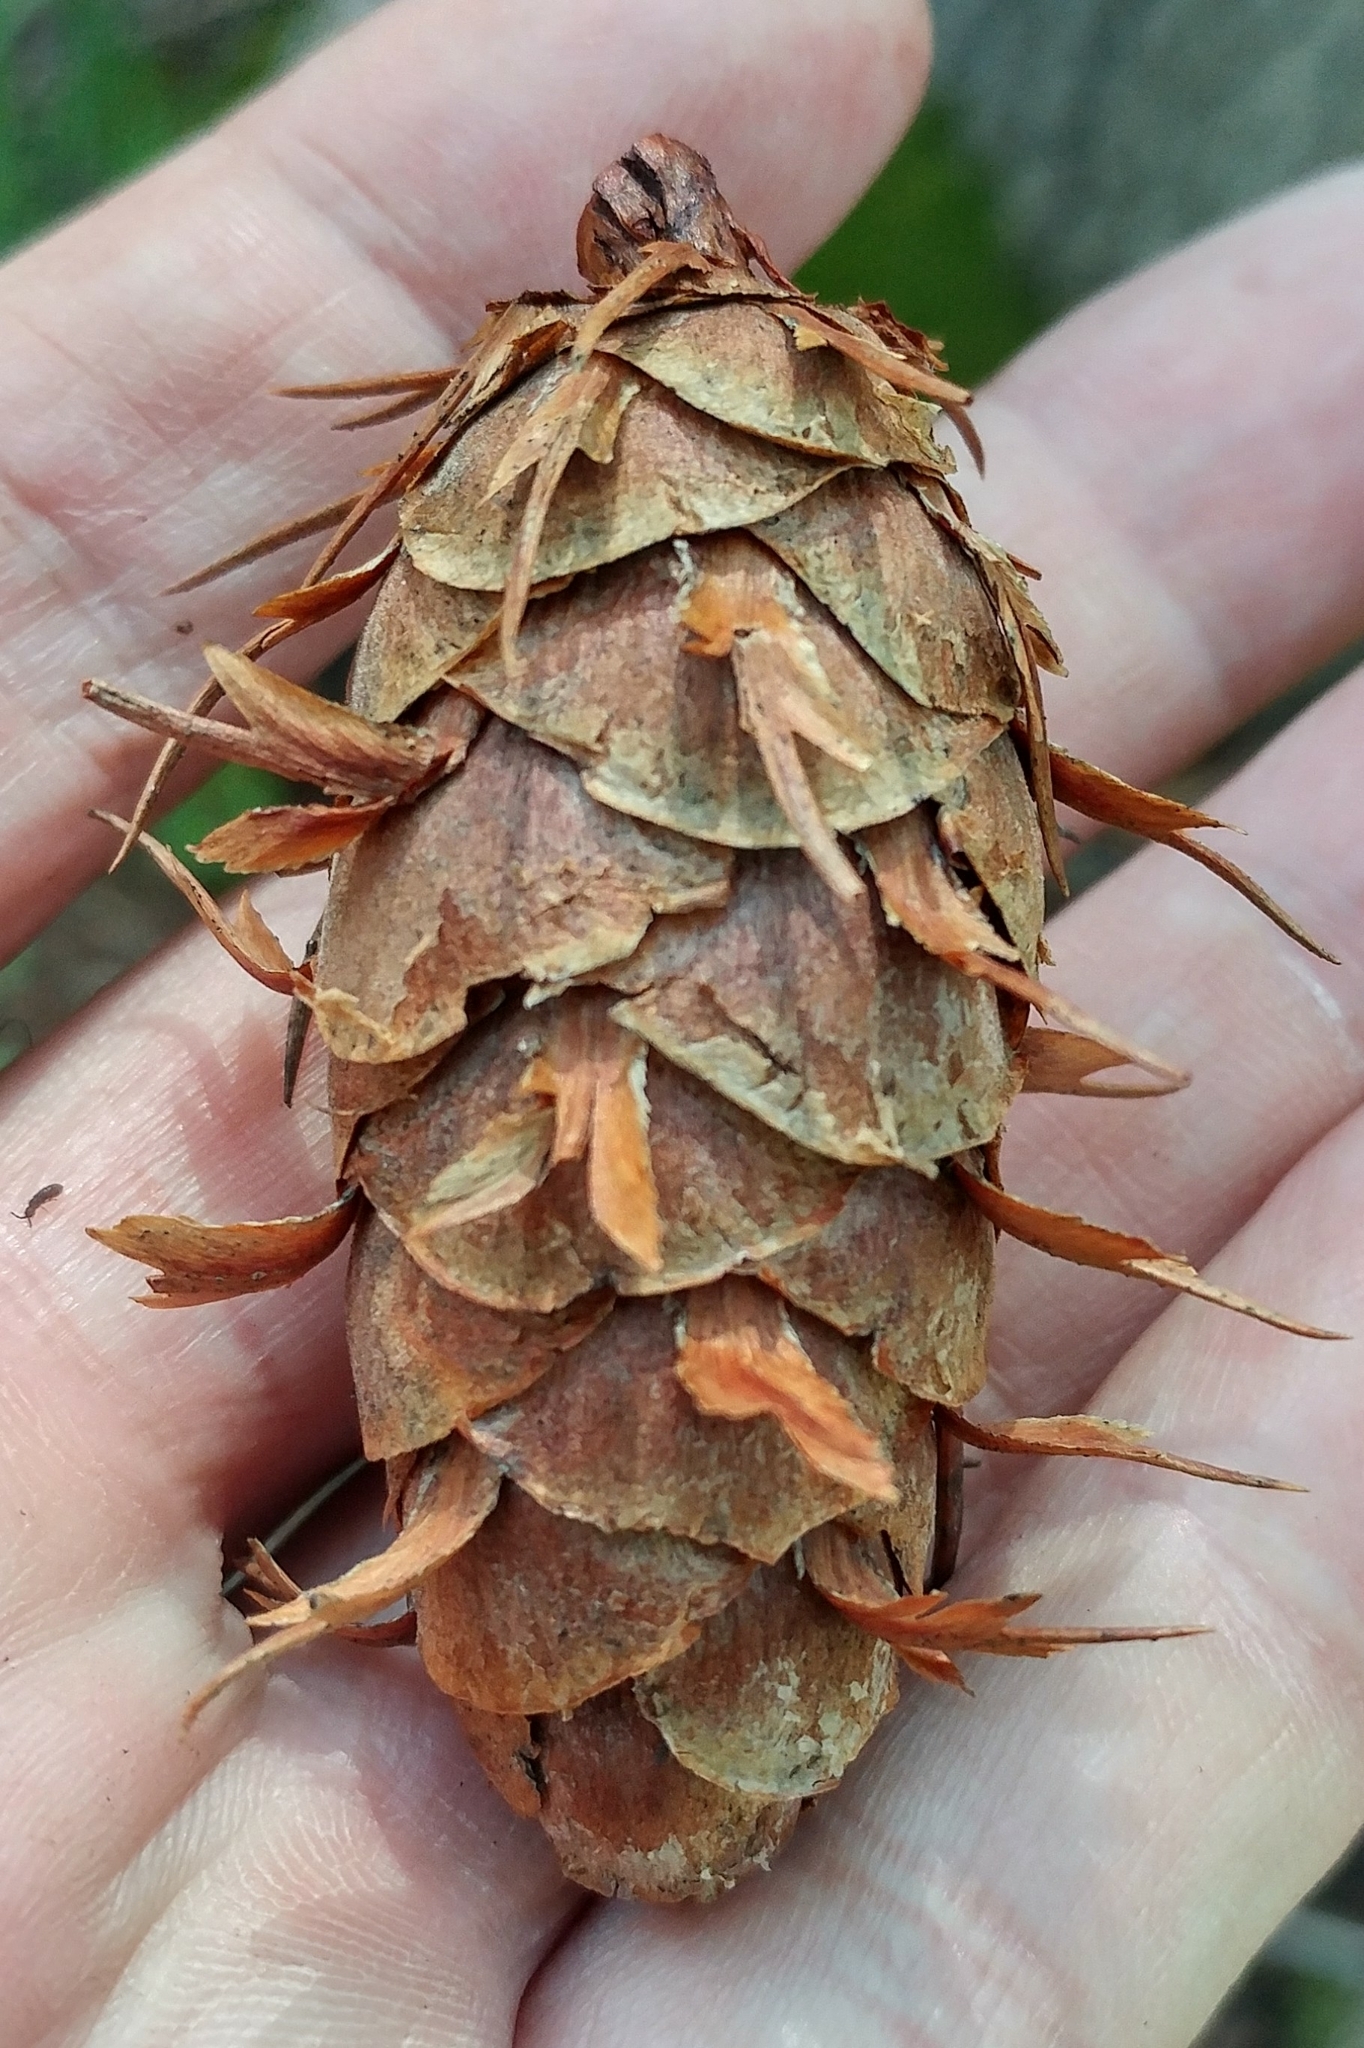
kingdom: Plantae
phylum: Tracheophyta
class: Pinopsida
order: Pinales
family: Pinaceae
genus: Pseudotsuga
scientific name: Pseudotsuga menziesii
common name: Douglas fir
